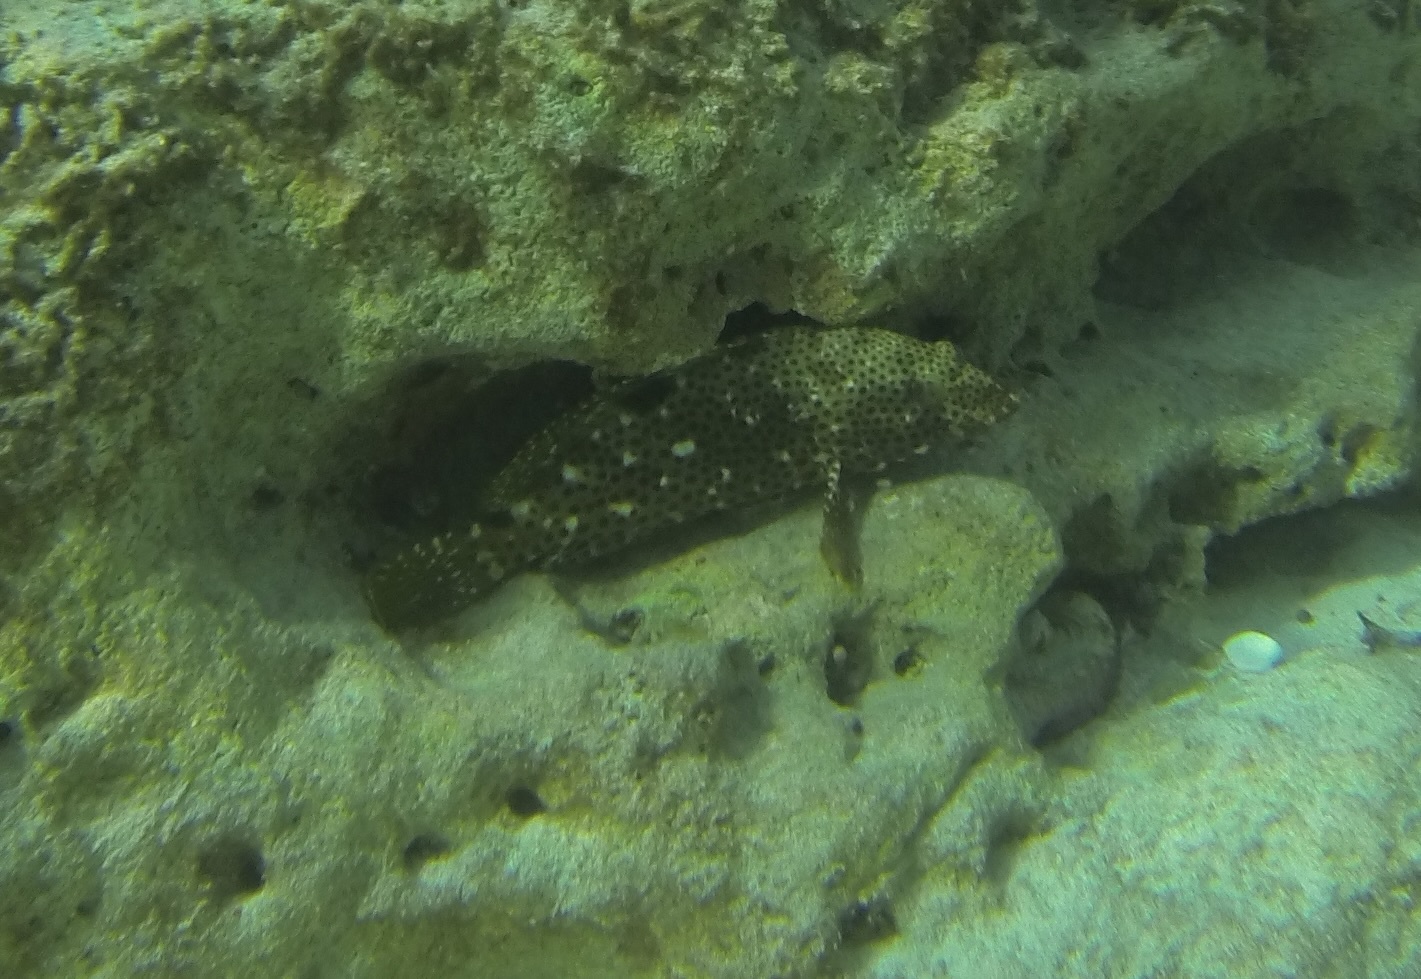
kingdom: Animalia
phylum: Chordata
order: Perciformes
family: Serranidae
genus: Epinephelus
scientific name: Epinephelus adscensionis
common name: Rock hind
